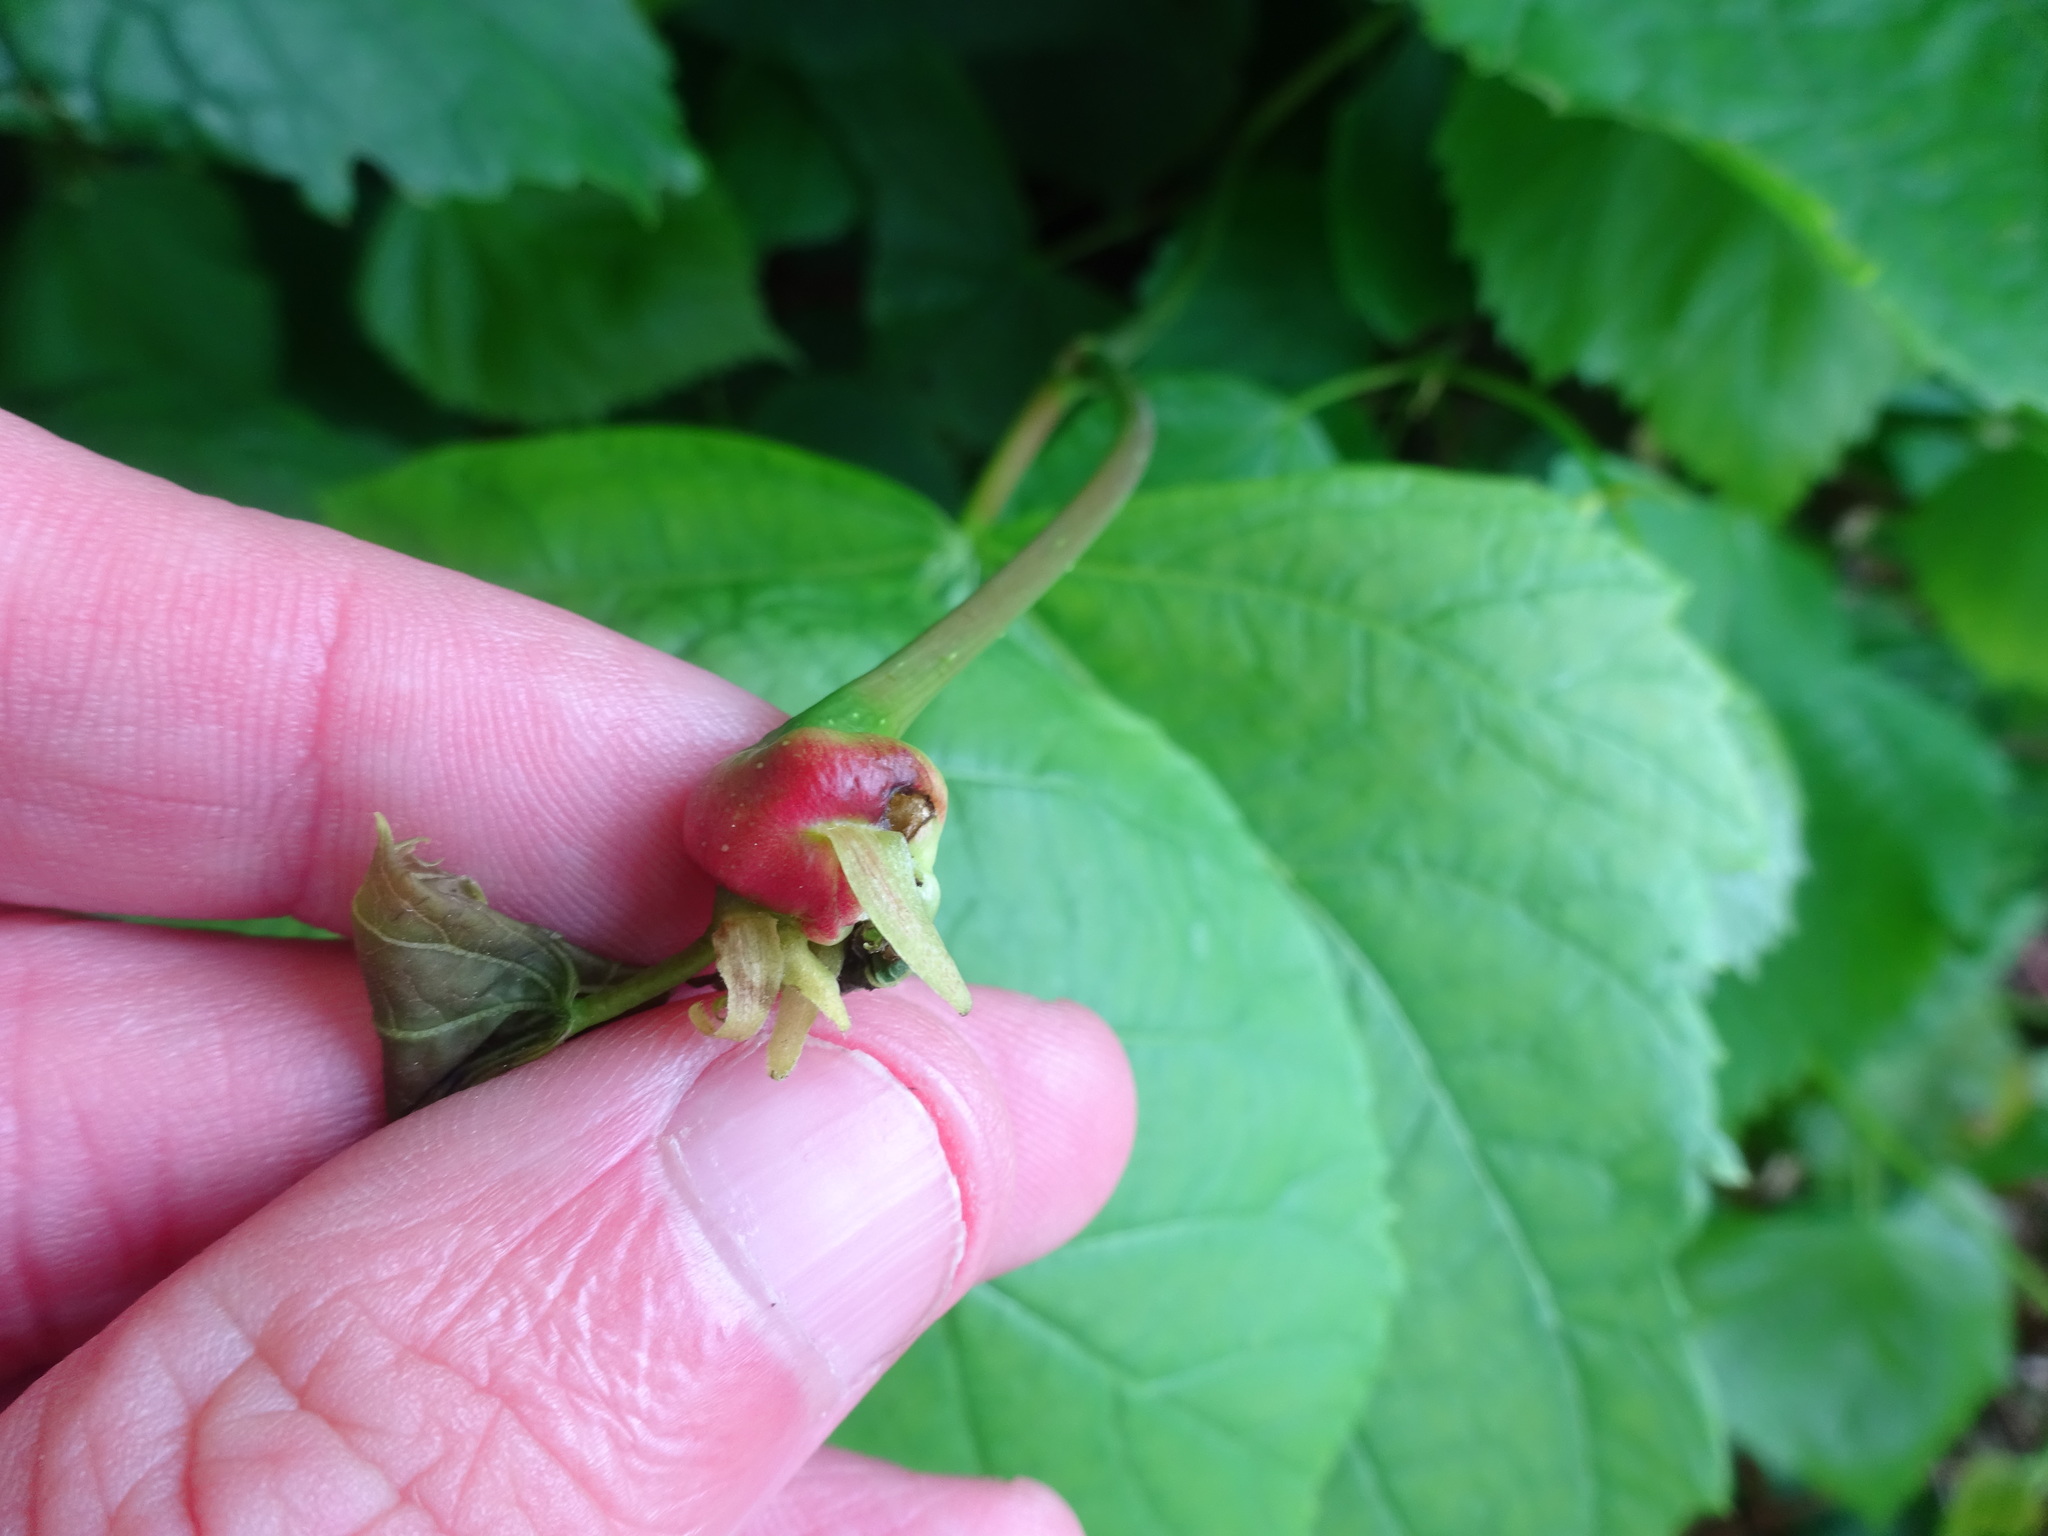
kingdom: Animalia
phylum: Arthropoda
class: Insecta
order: Diptera
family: Cecidomyiidae
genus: Contarinia
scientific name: Contarinia tiliarum
